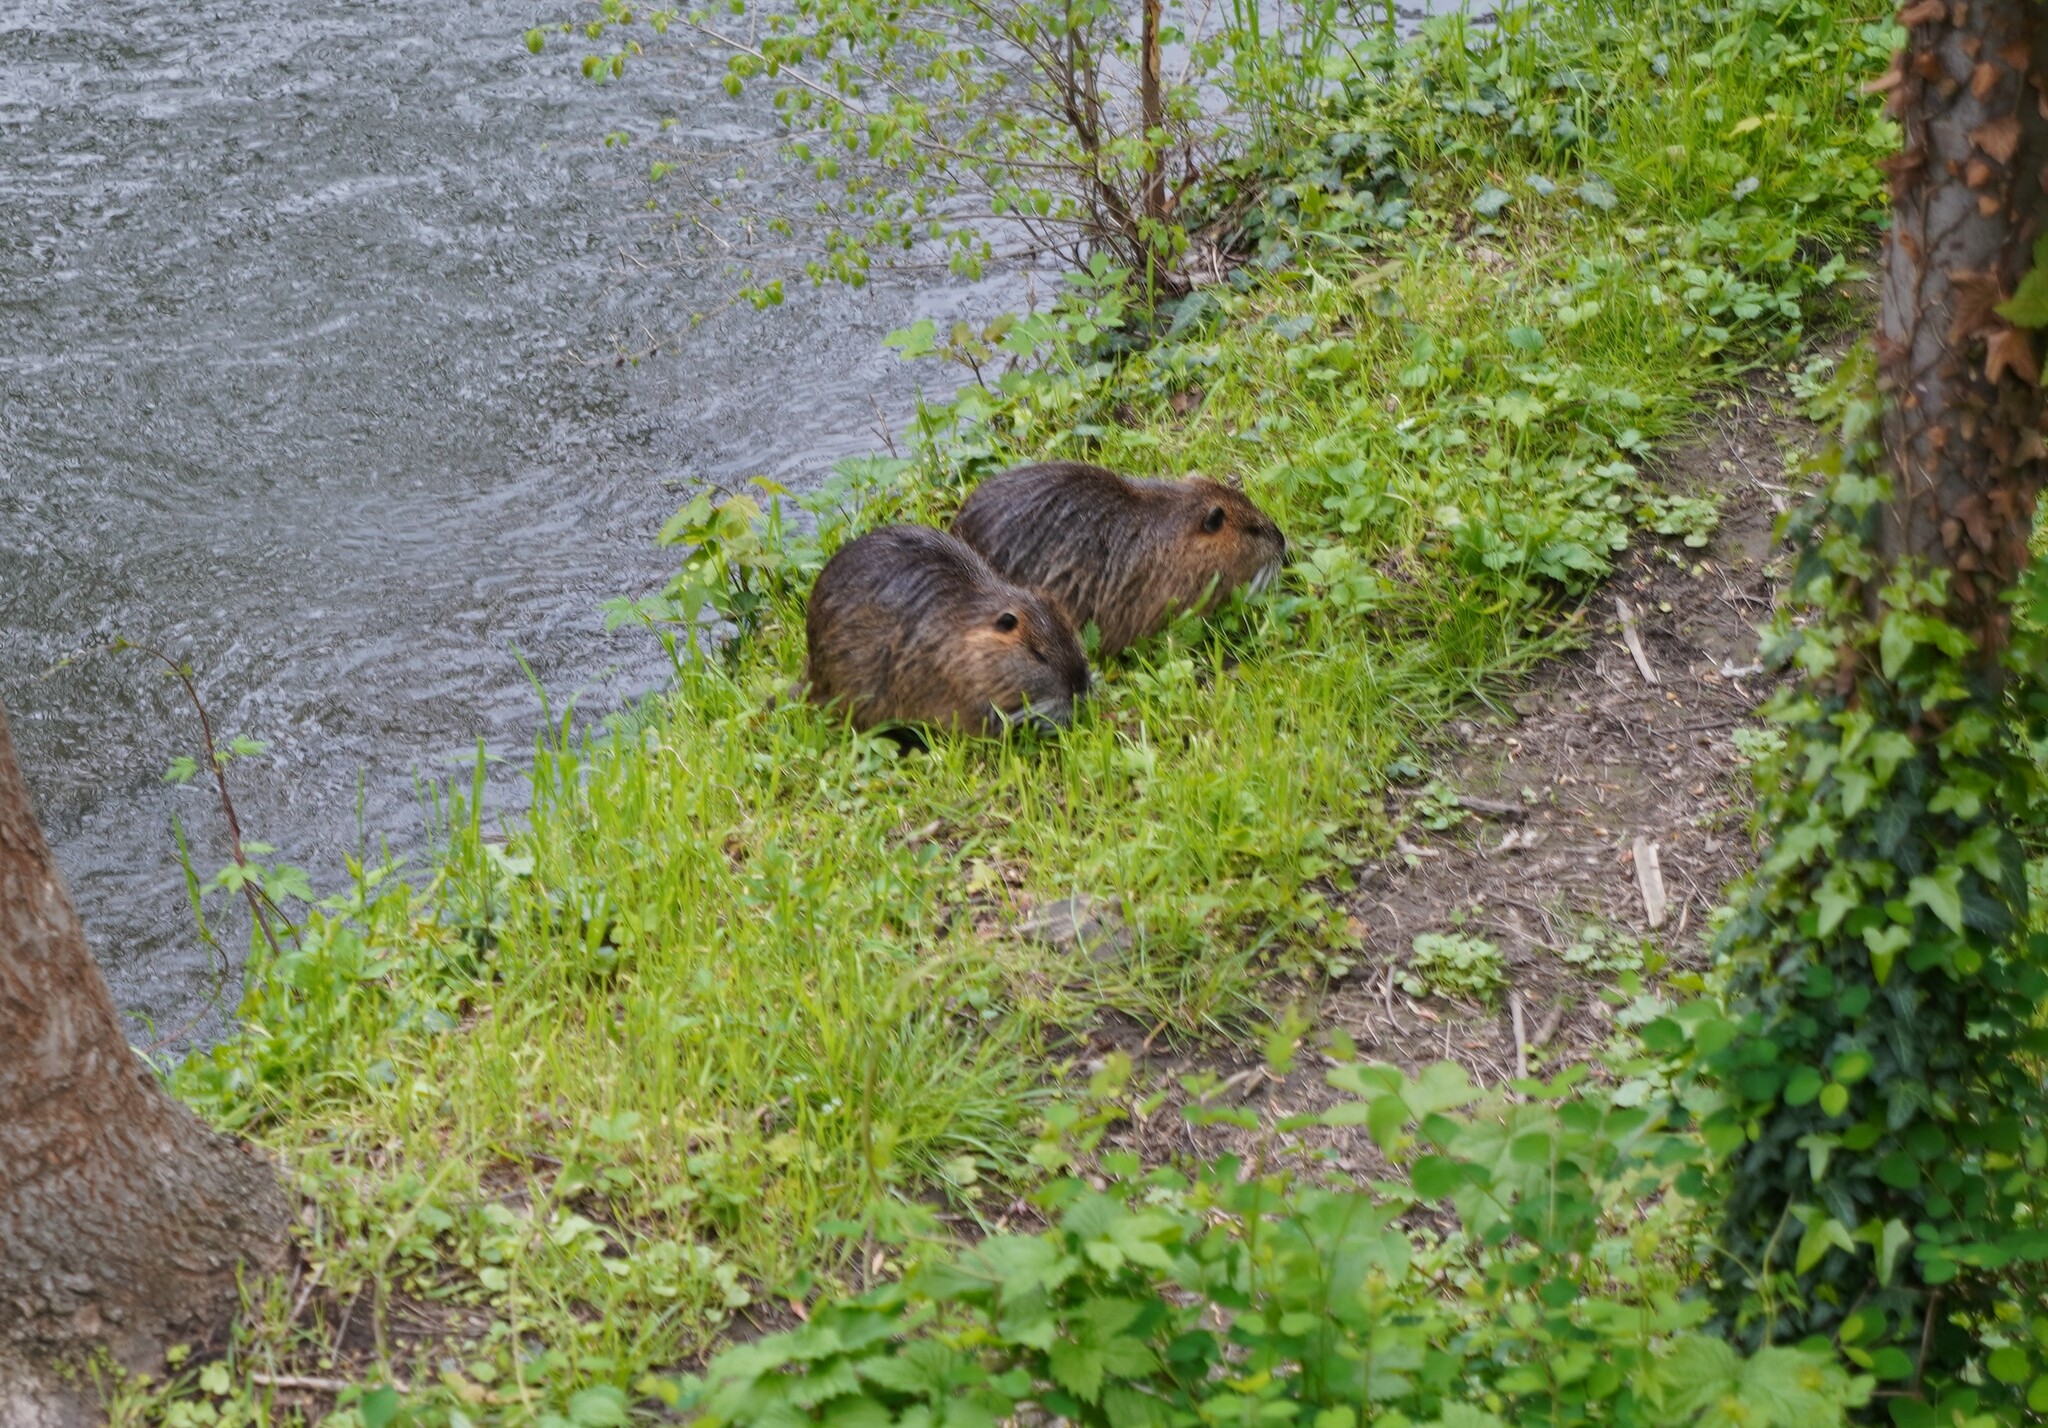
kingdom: Animalia
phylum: Chordata
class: Mammalia
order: Rodentia
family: Myocastoridae
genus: Myocastor
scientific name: Myocastor coypus
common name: Coypu
